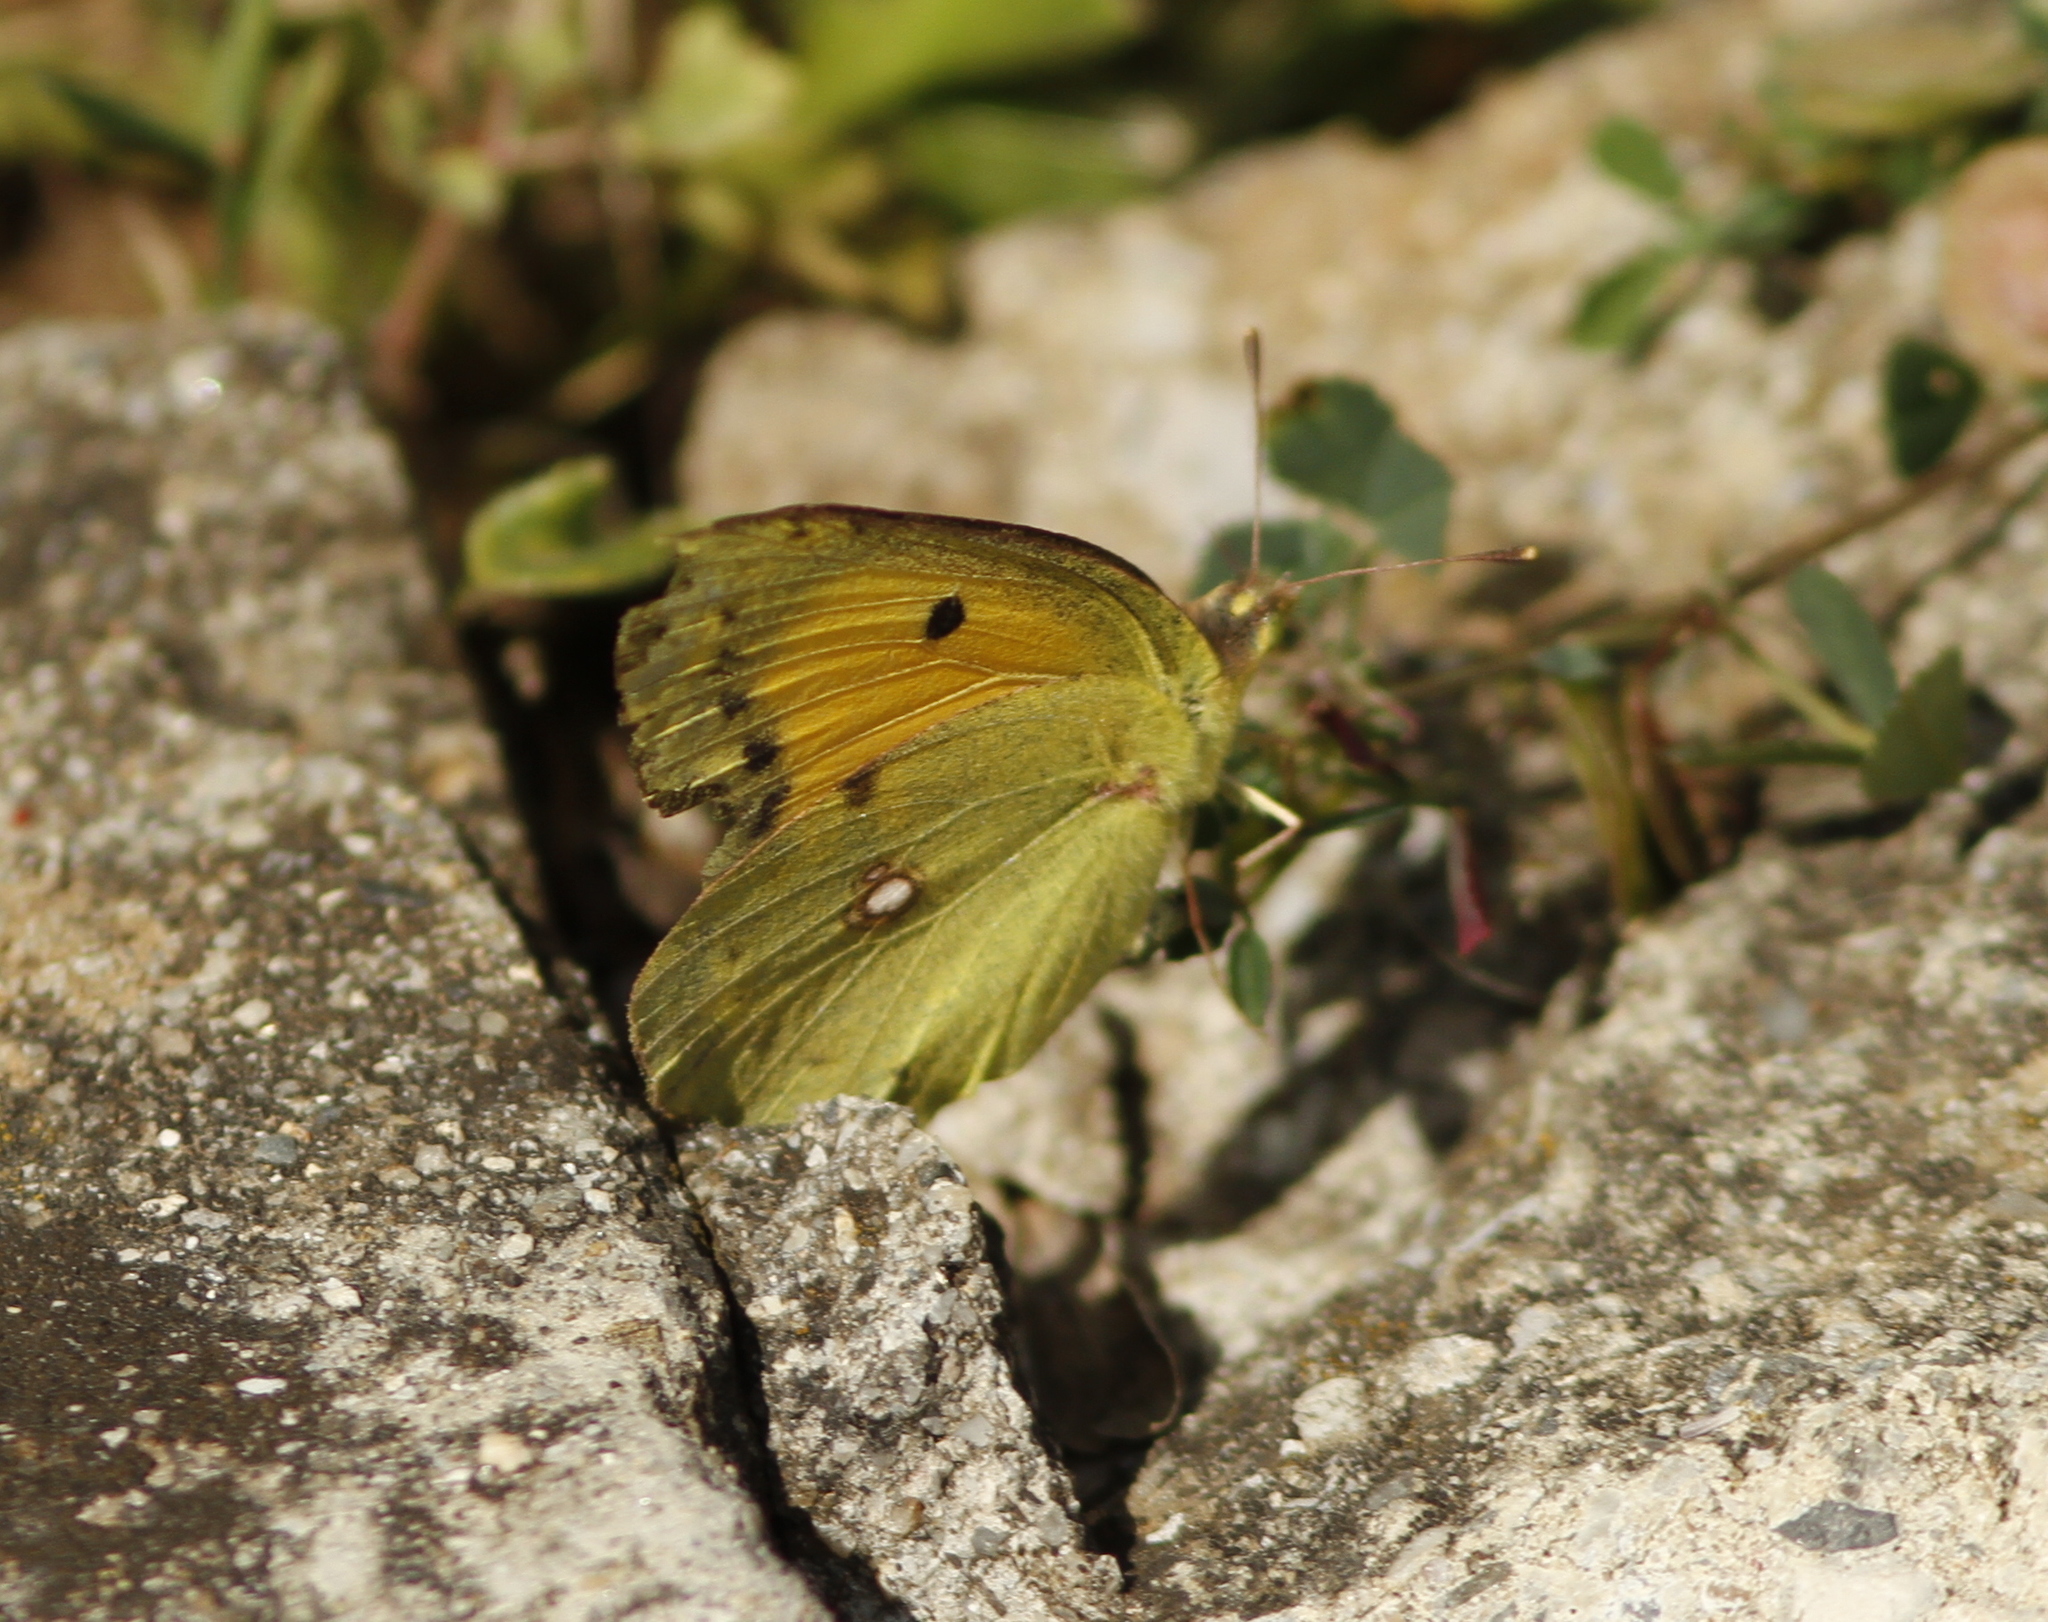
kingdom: Animalia
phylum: Arthropoda
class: Insecta
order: Lepidoptera
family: Pieridae
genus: Colias
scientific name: Colias croceus
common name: Clouded yellow
